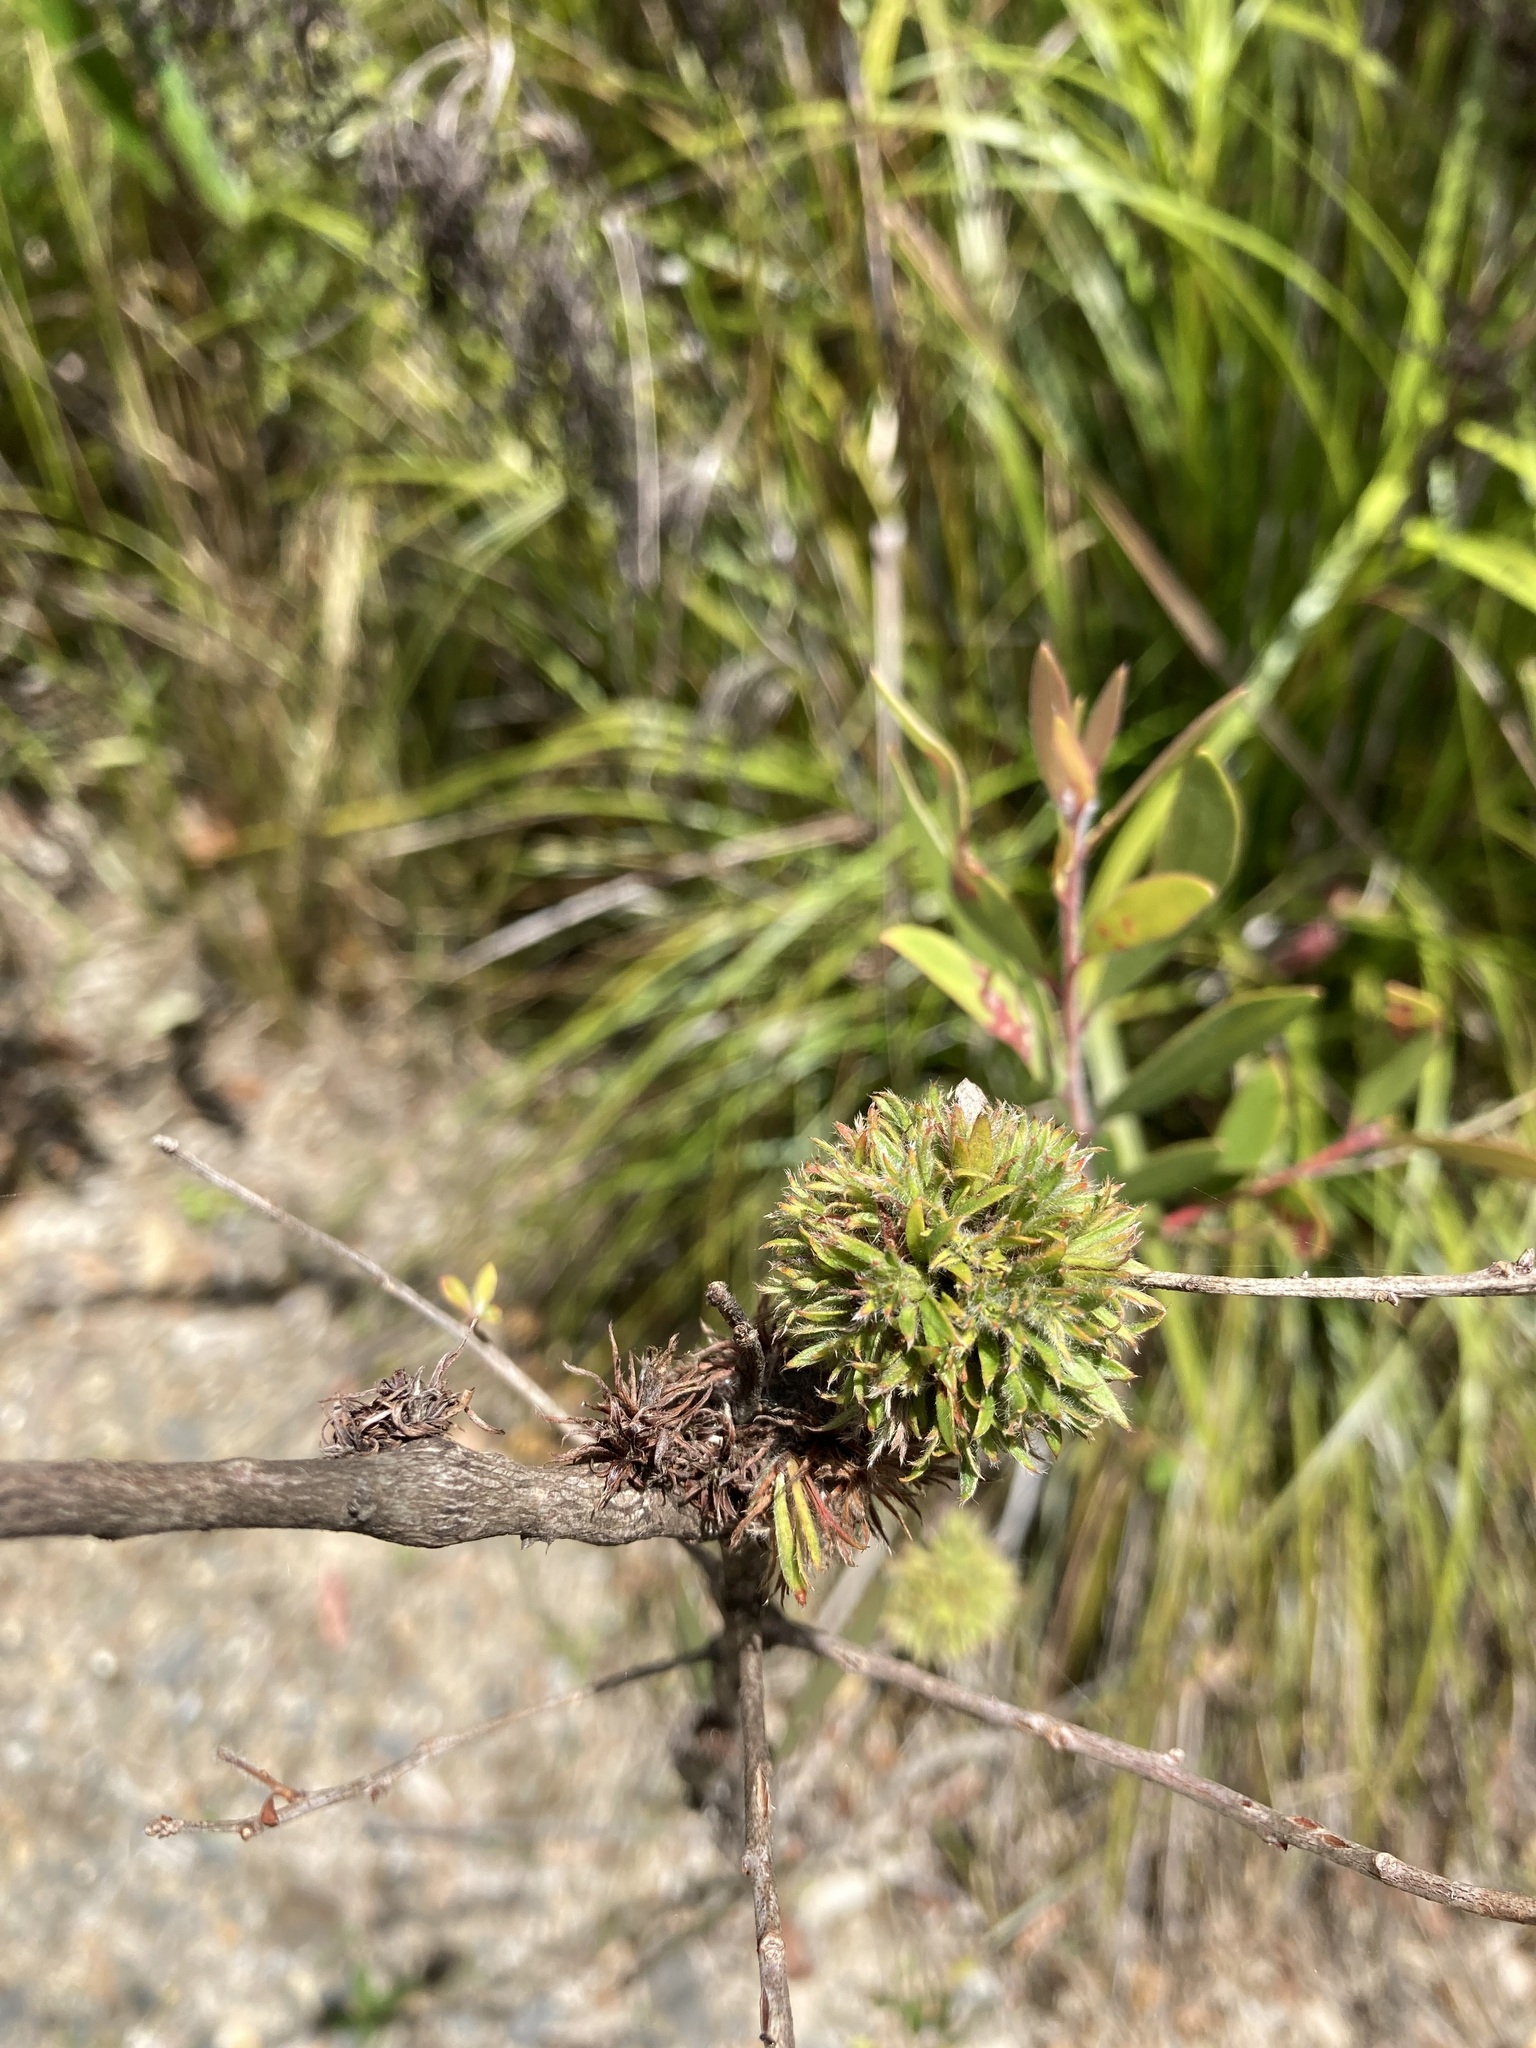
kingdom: Animalia
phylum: Arthropoda
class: Insecta
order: Hemiptera
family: Beesoniidae
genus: Beesonia
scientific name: Beesonia ferrugineus
